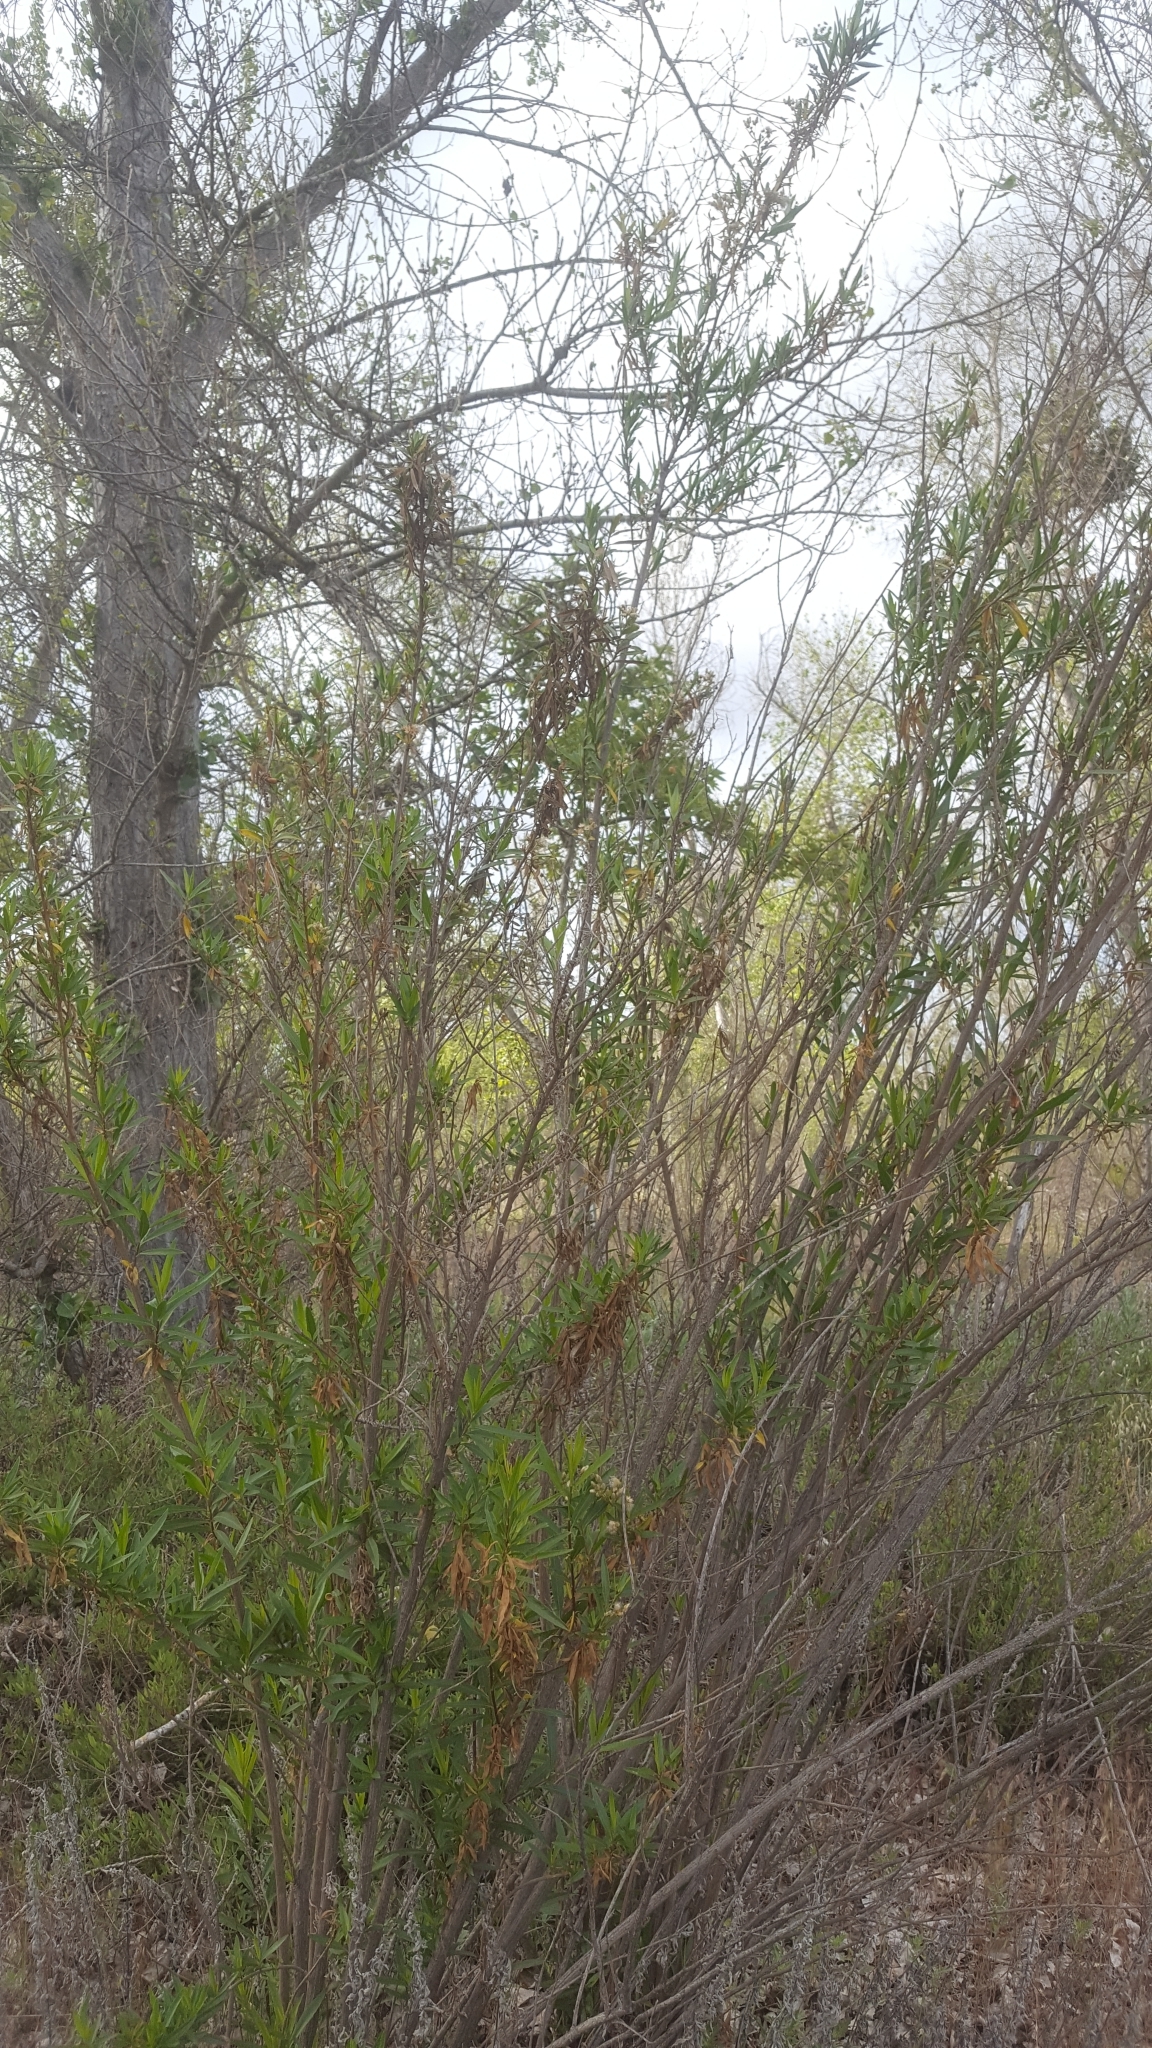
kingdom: Plantae
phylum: Tracheophyta
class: Magnoliopsida
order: Asterales
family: Asteraceae
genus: Baccharis
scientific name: Baccharis salicifolia
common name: Sticky baccharis
